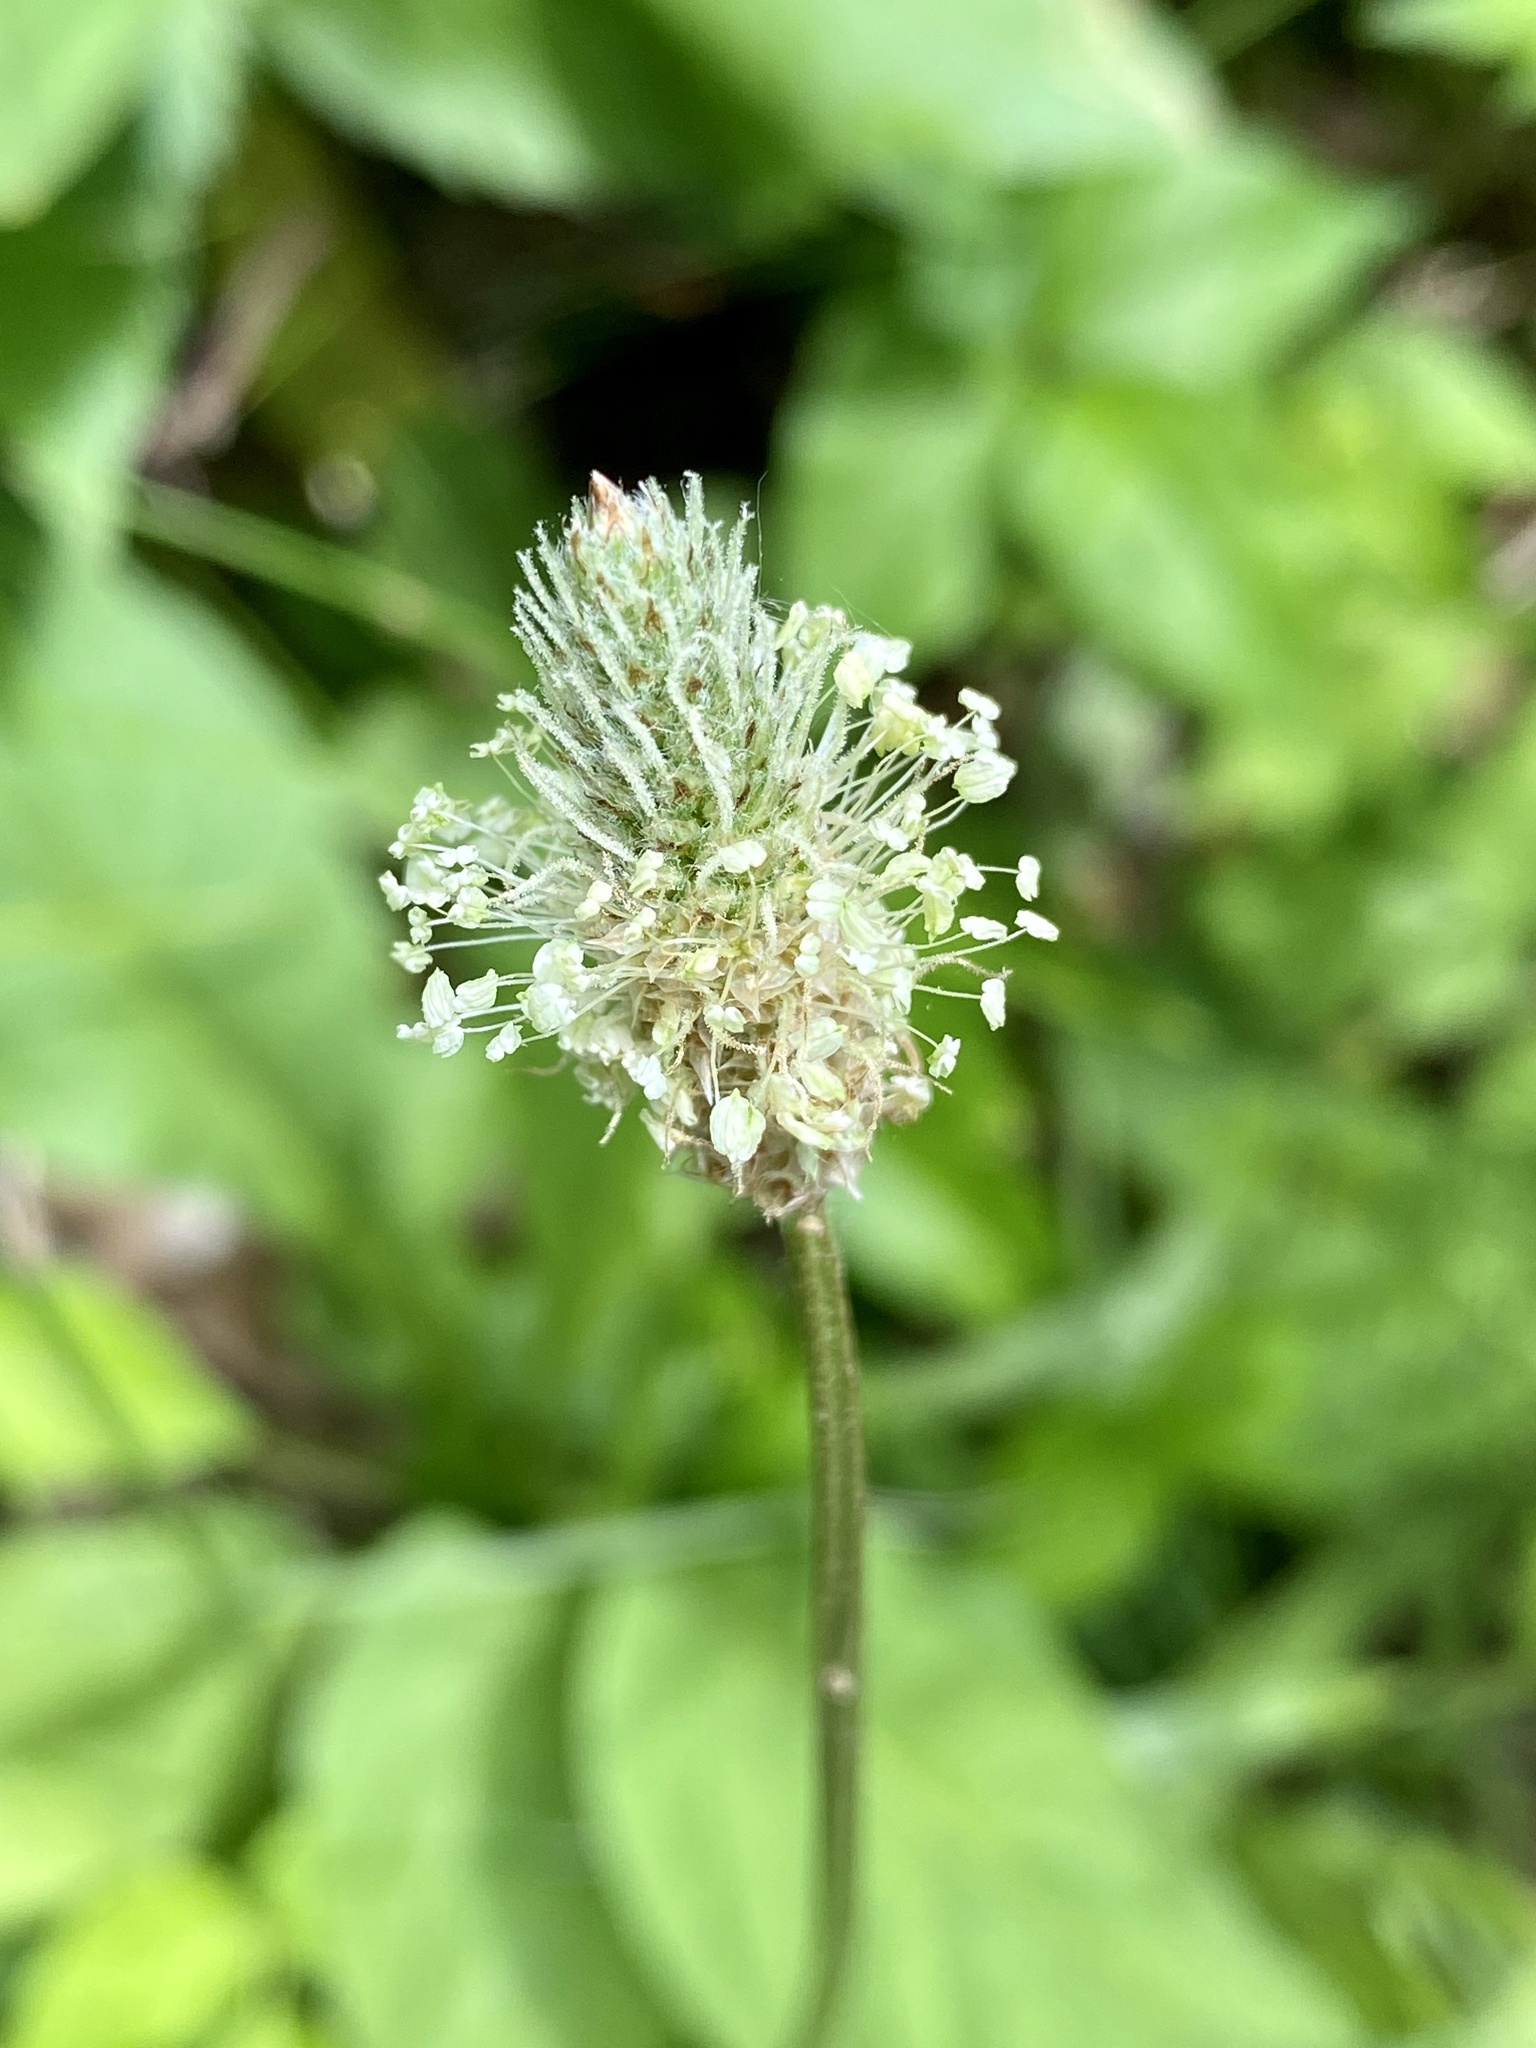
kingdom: Plantae
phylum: Tracheophyta
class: Magnoliopsida
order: Lamiales
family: Plantaginaceae
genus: Plantago
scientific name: Plantago lanceolata
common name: Ribwort plantain
